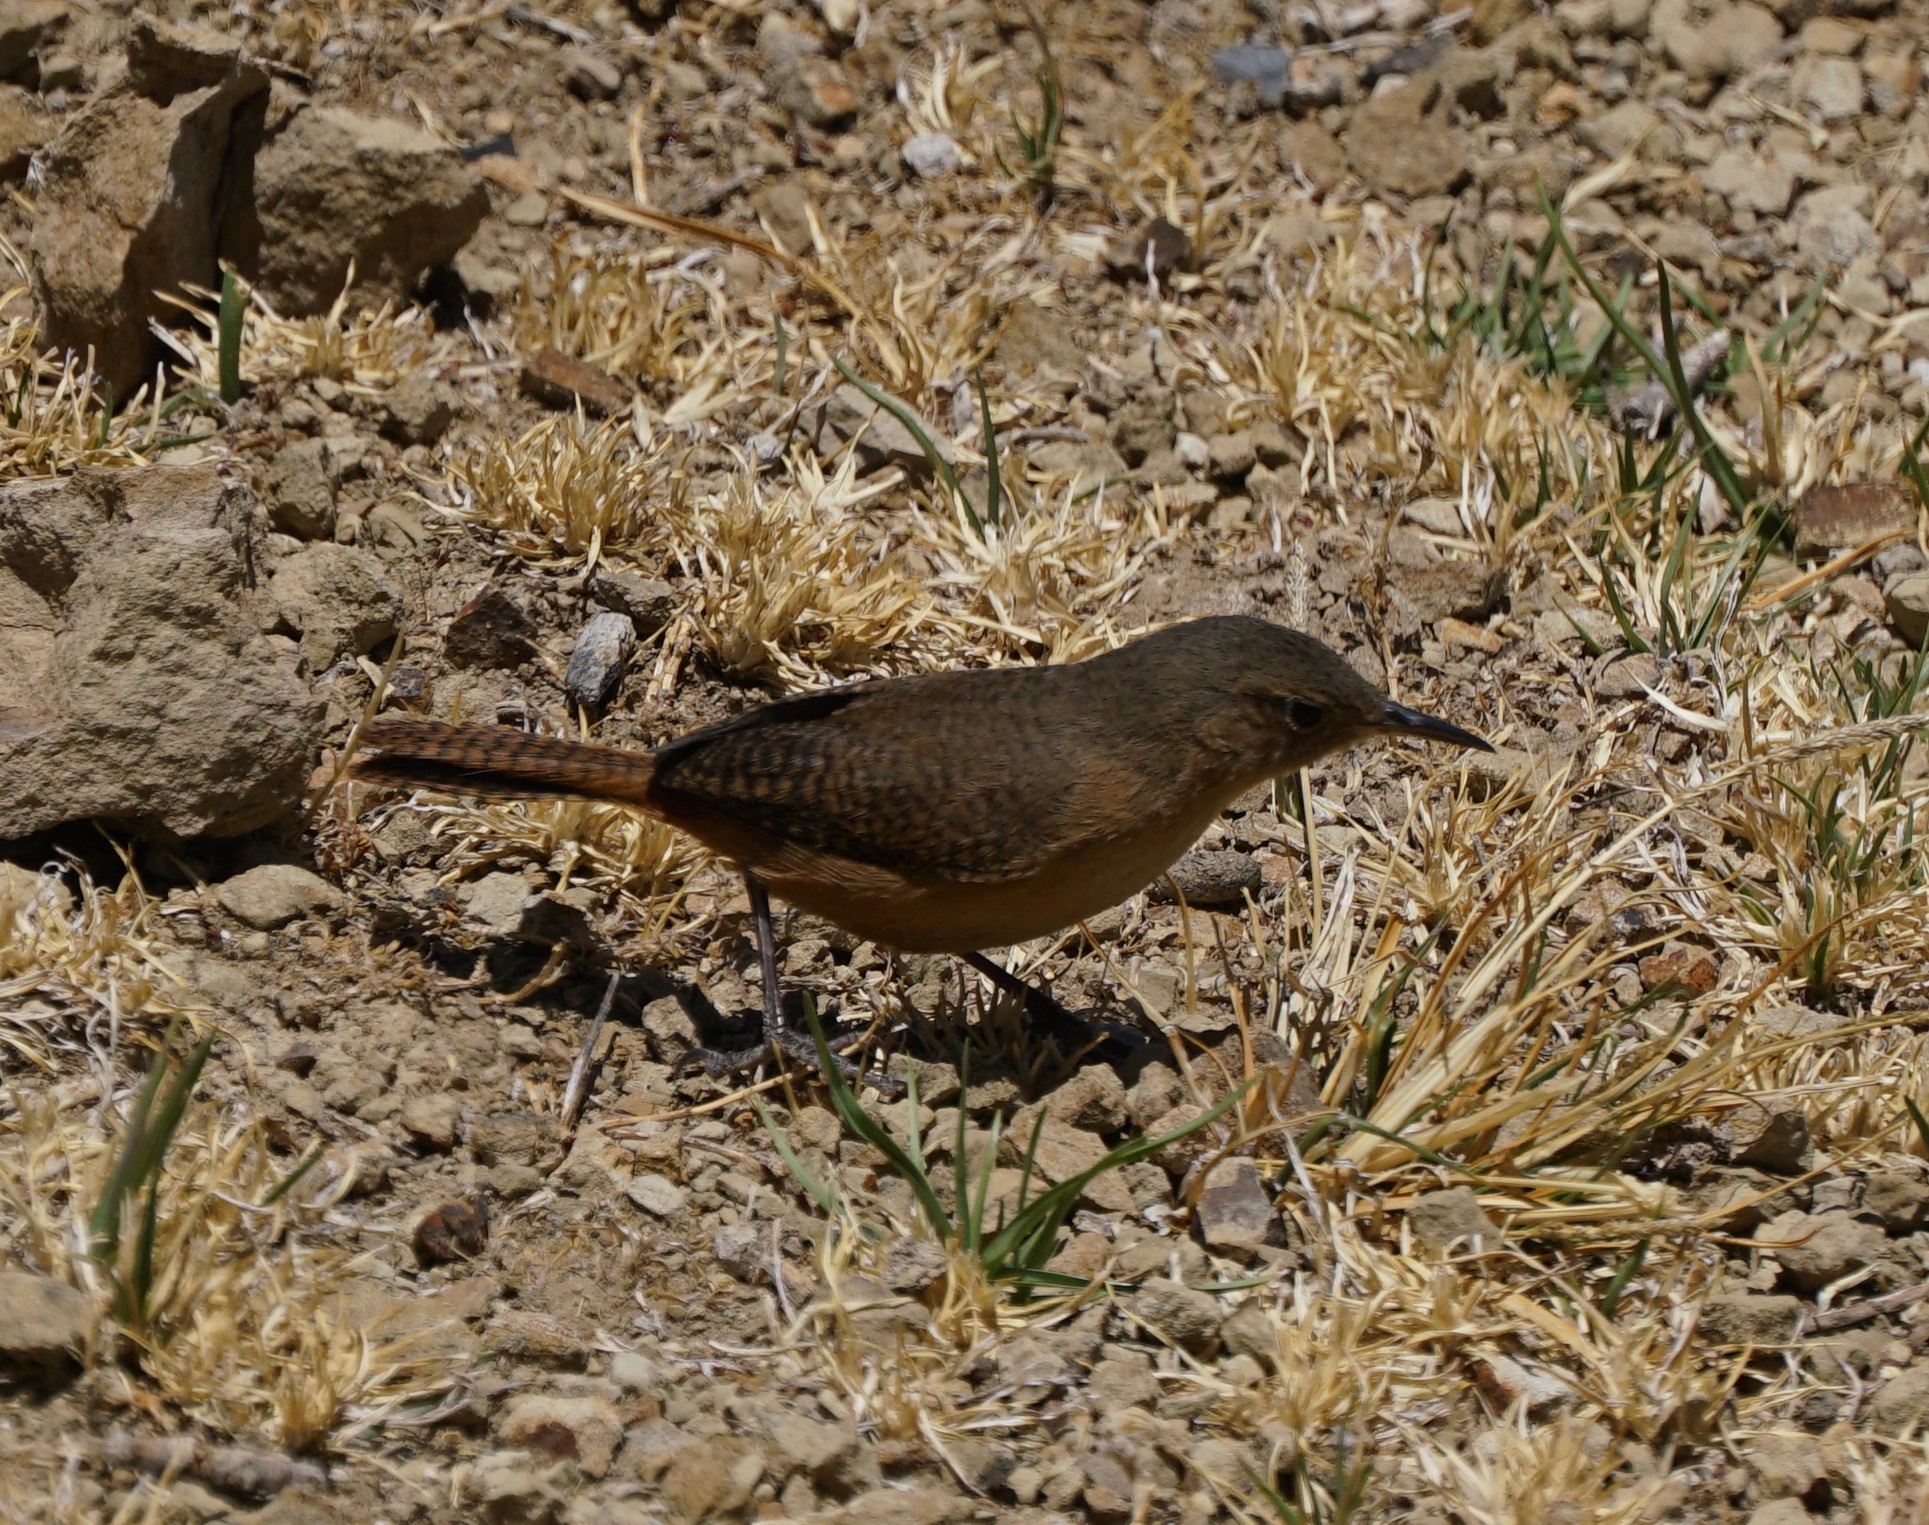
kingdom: Animalia
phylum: Chordata
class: Aves
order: Passeriformes
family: Troglodytidae
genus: Troglodytes
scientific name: Troglodytes aedon
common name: House wren
